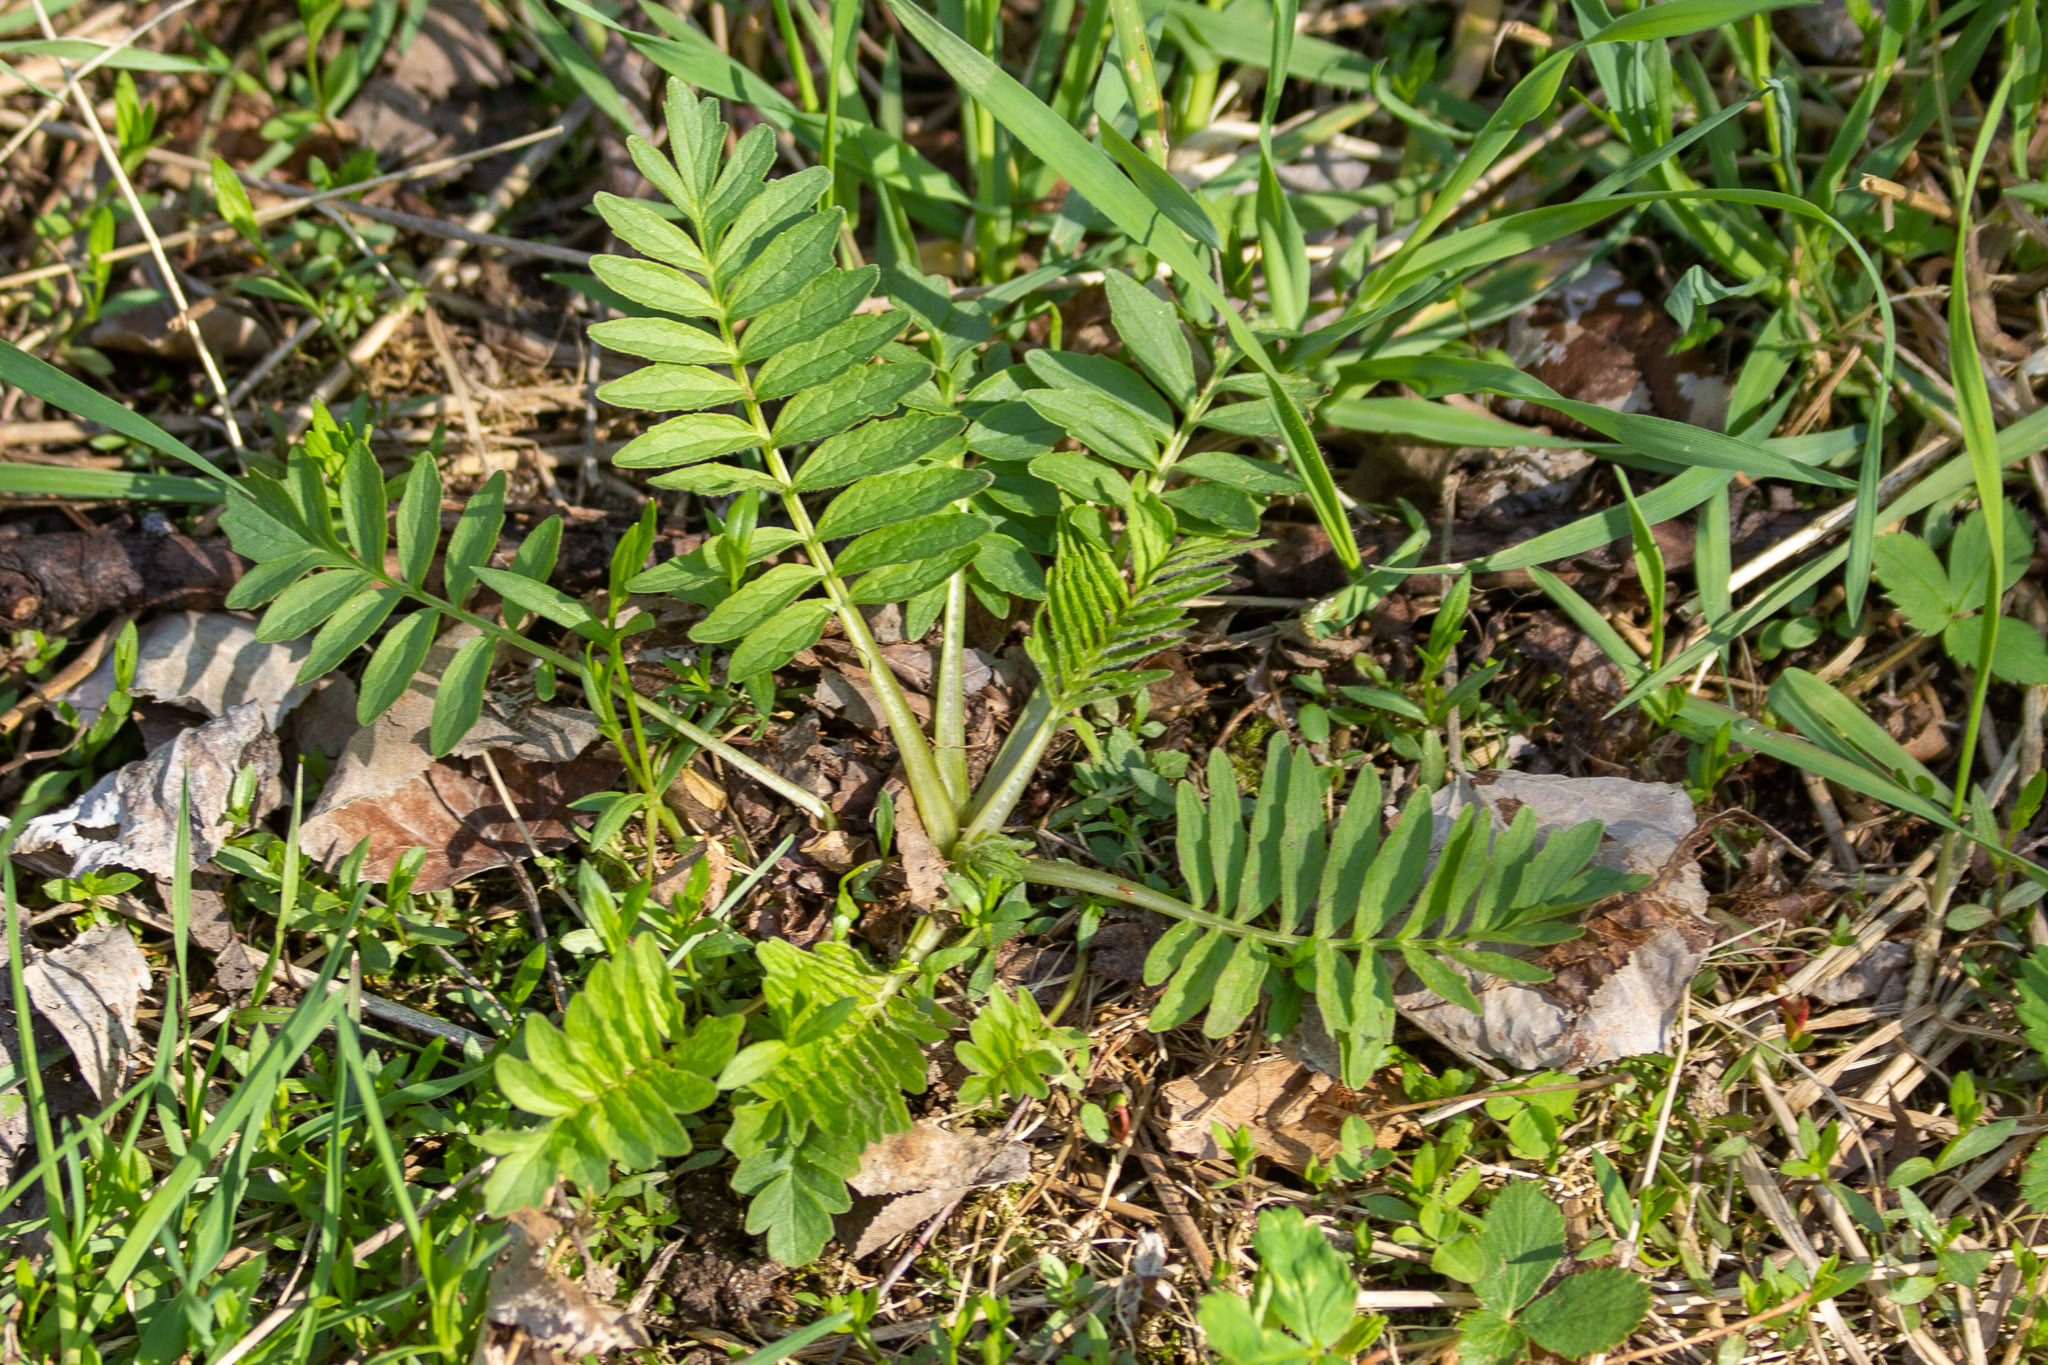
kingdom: Plantae
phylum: Tracheophyta
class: Magnoliopsida
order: Dipsacales
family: Caprifoliaceae
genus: Valeriana
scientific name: Valeriana officinalis
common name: Common valerian
